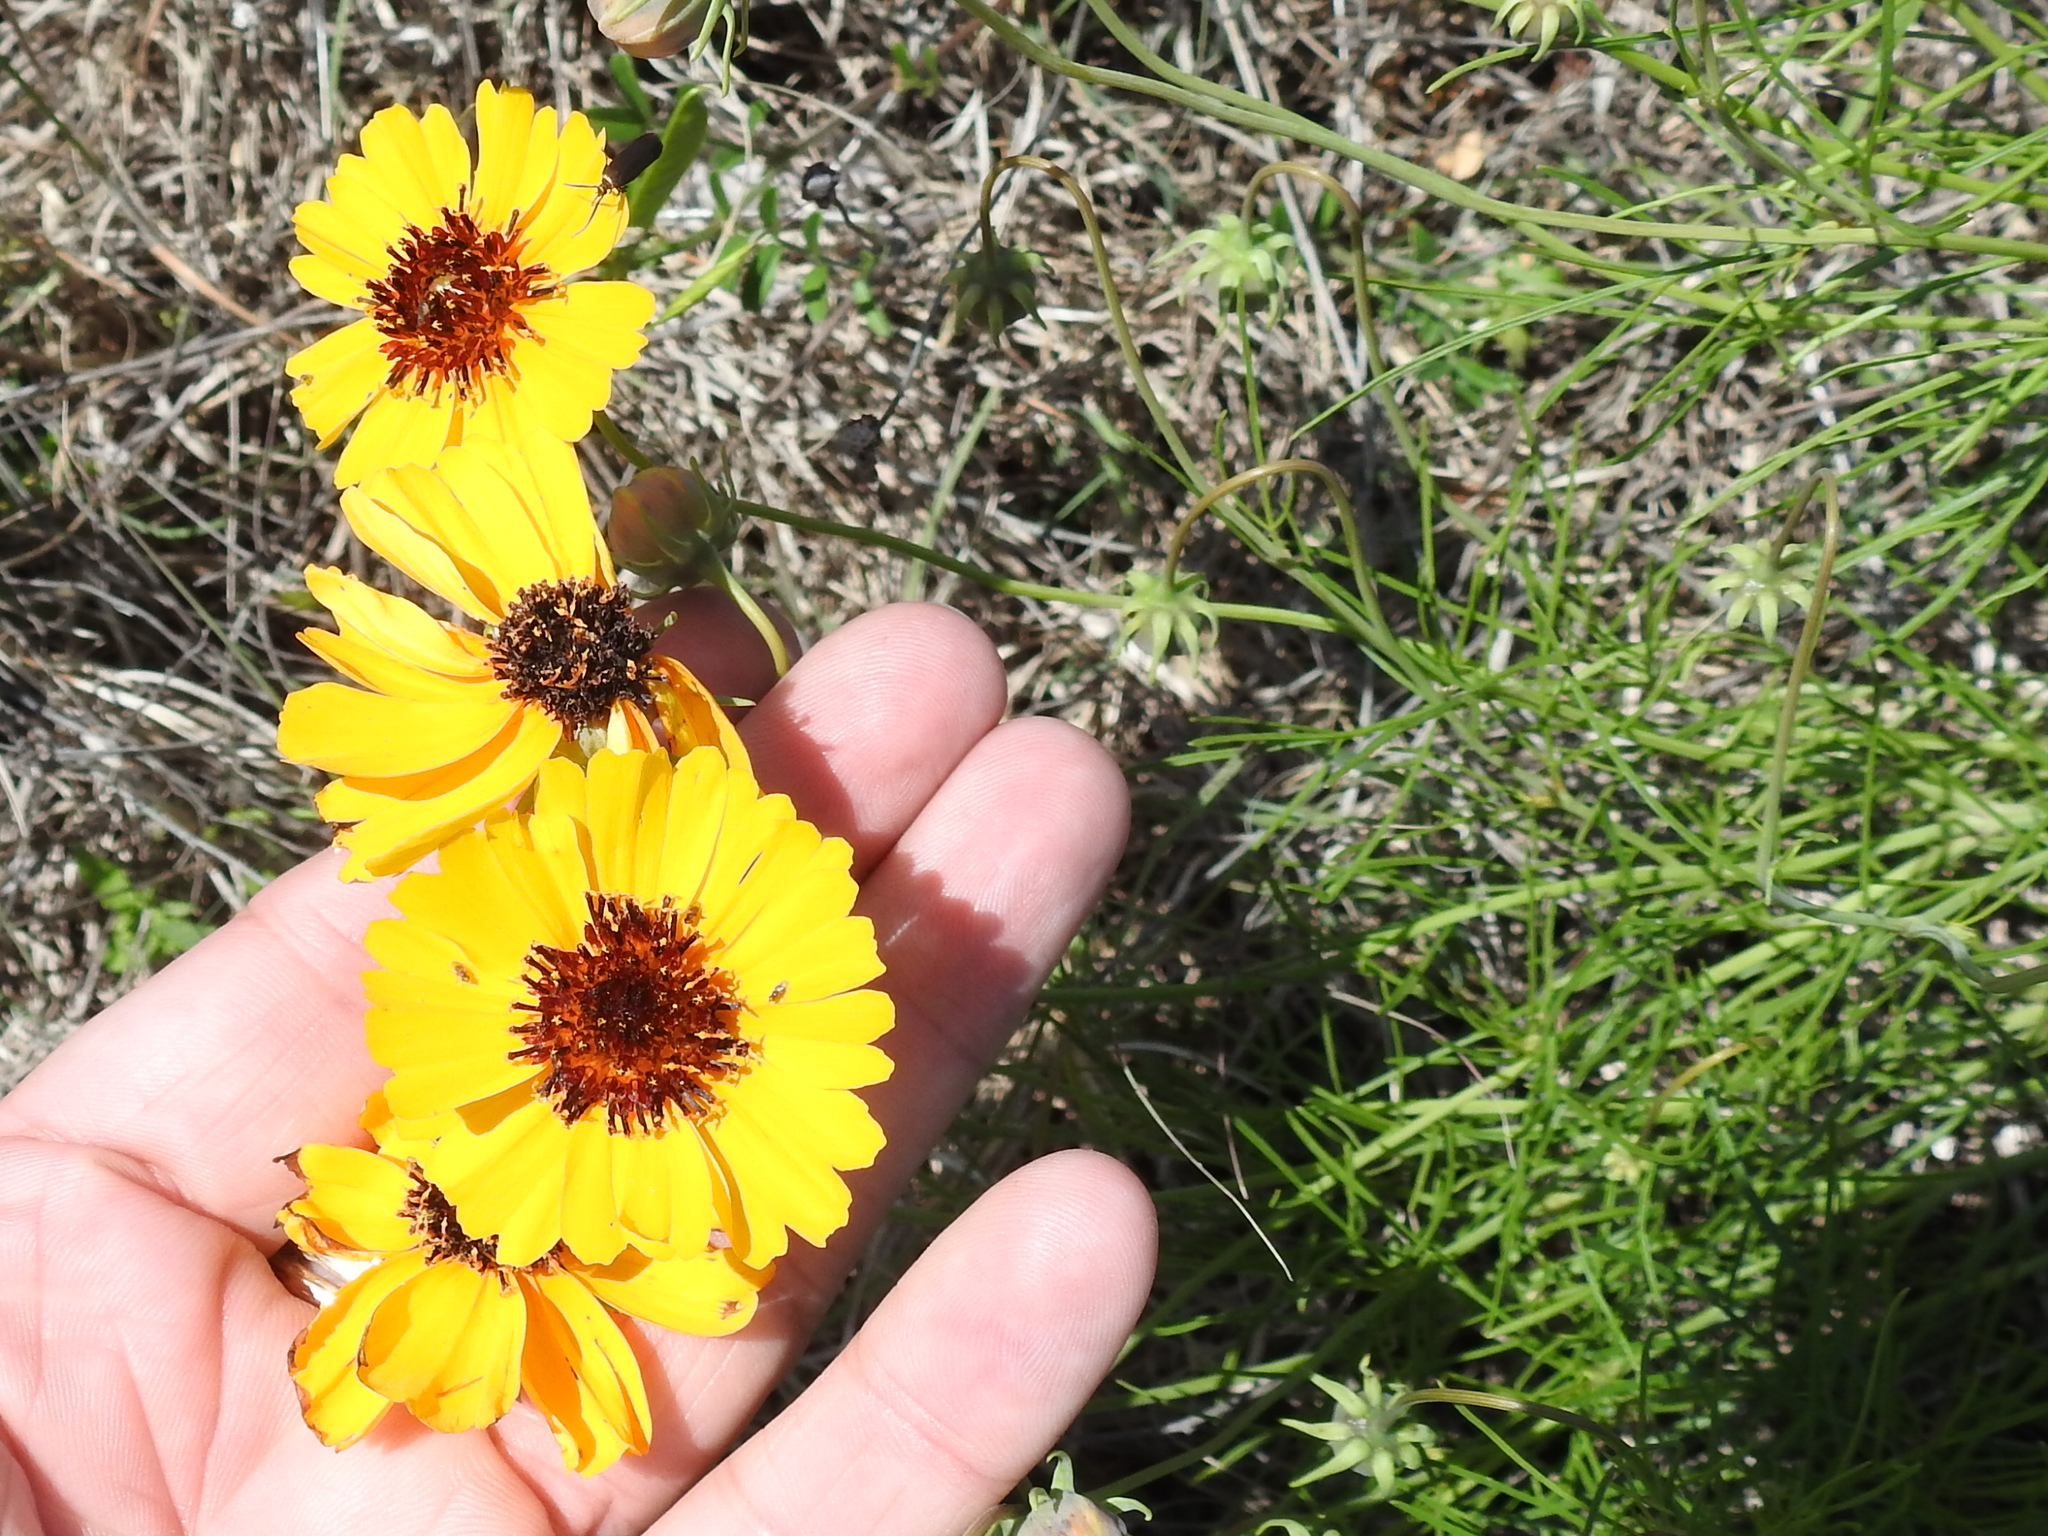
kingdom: Plantae
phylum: Tracheophyta
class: Magnoliopsida
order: Asterales
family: Asteraceae
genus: Thelesperma
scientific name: Thelesperma filifolium
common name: Stiff greenthread
